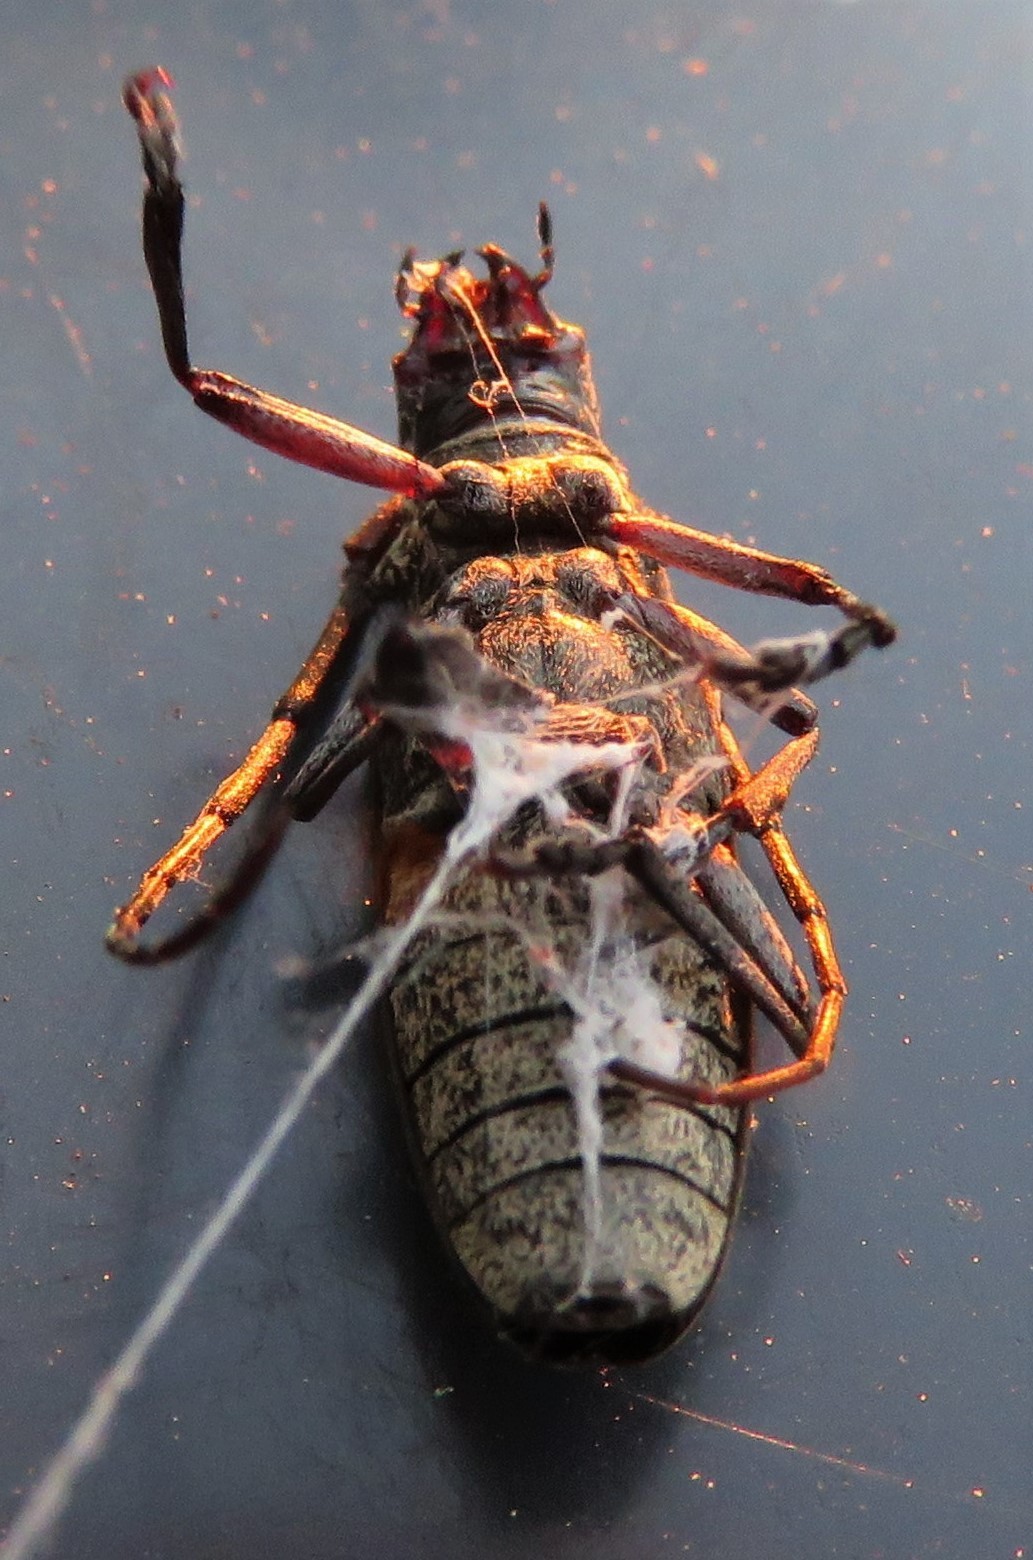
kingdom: Animalia
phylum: Arthropoda
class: Insecta
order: Coleoptera
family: Cerambycidae
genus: Monochamus
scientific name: Monochamus scutellatus
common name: White-spotted sawyer beetle
